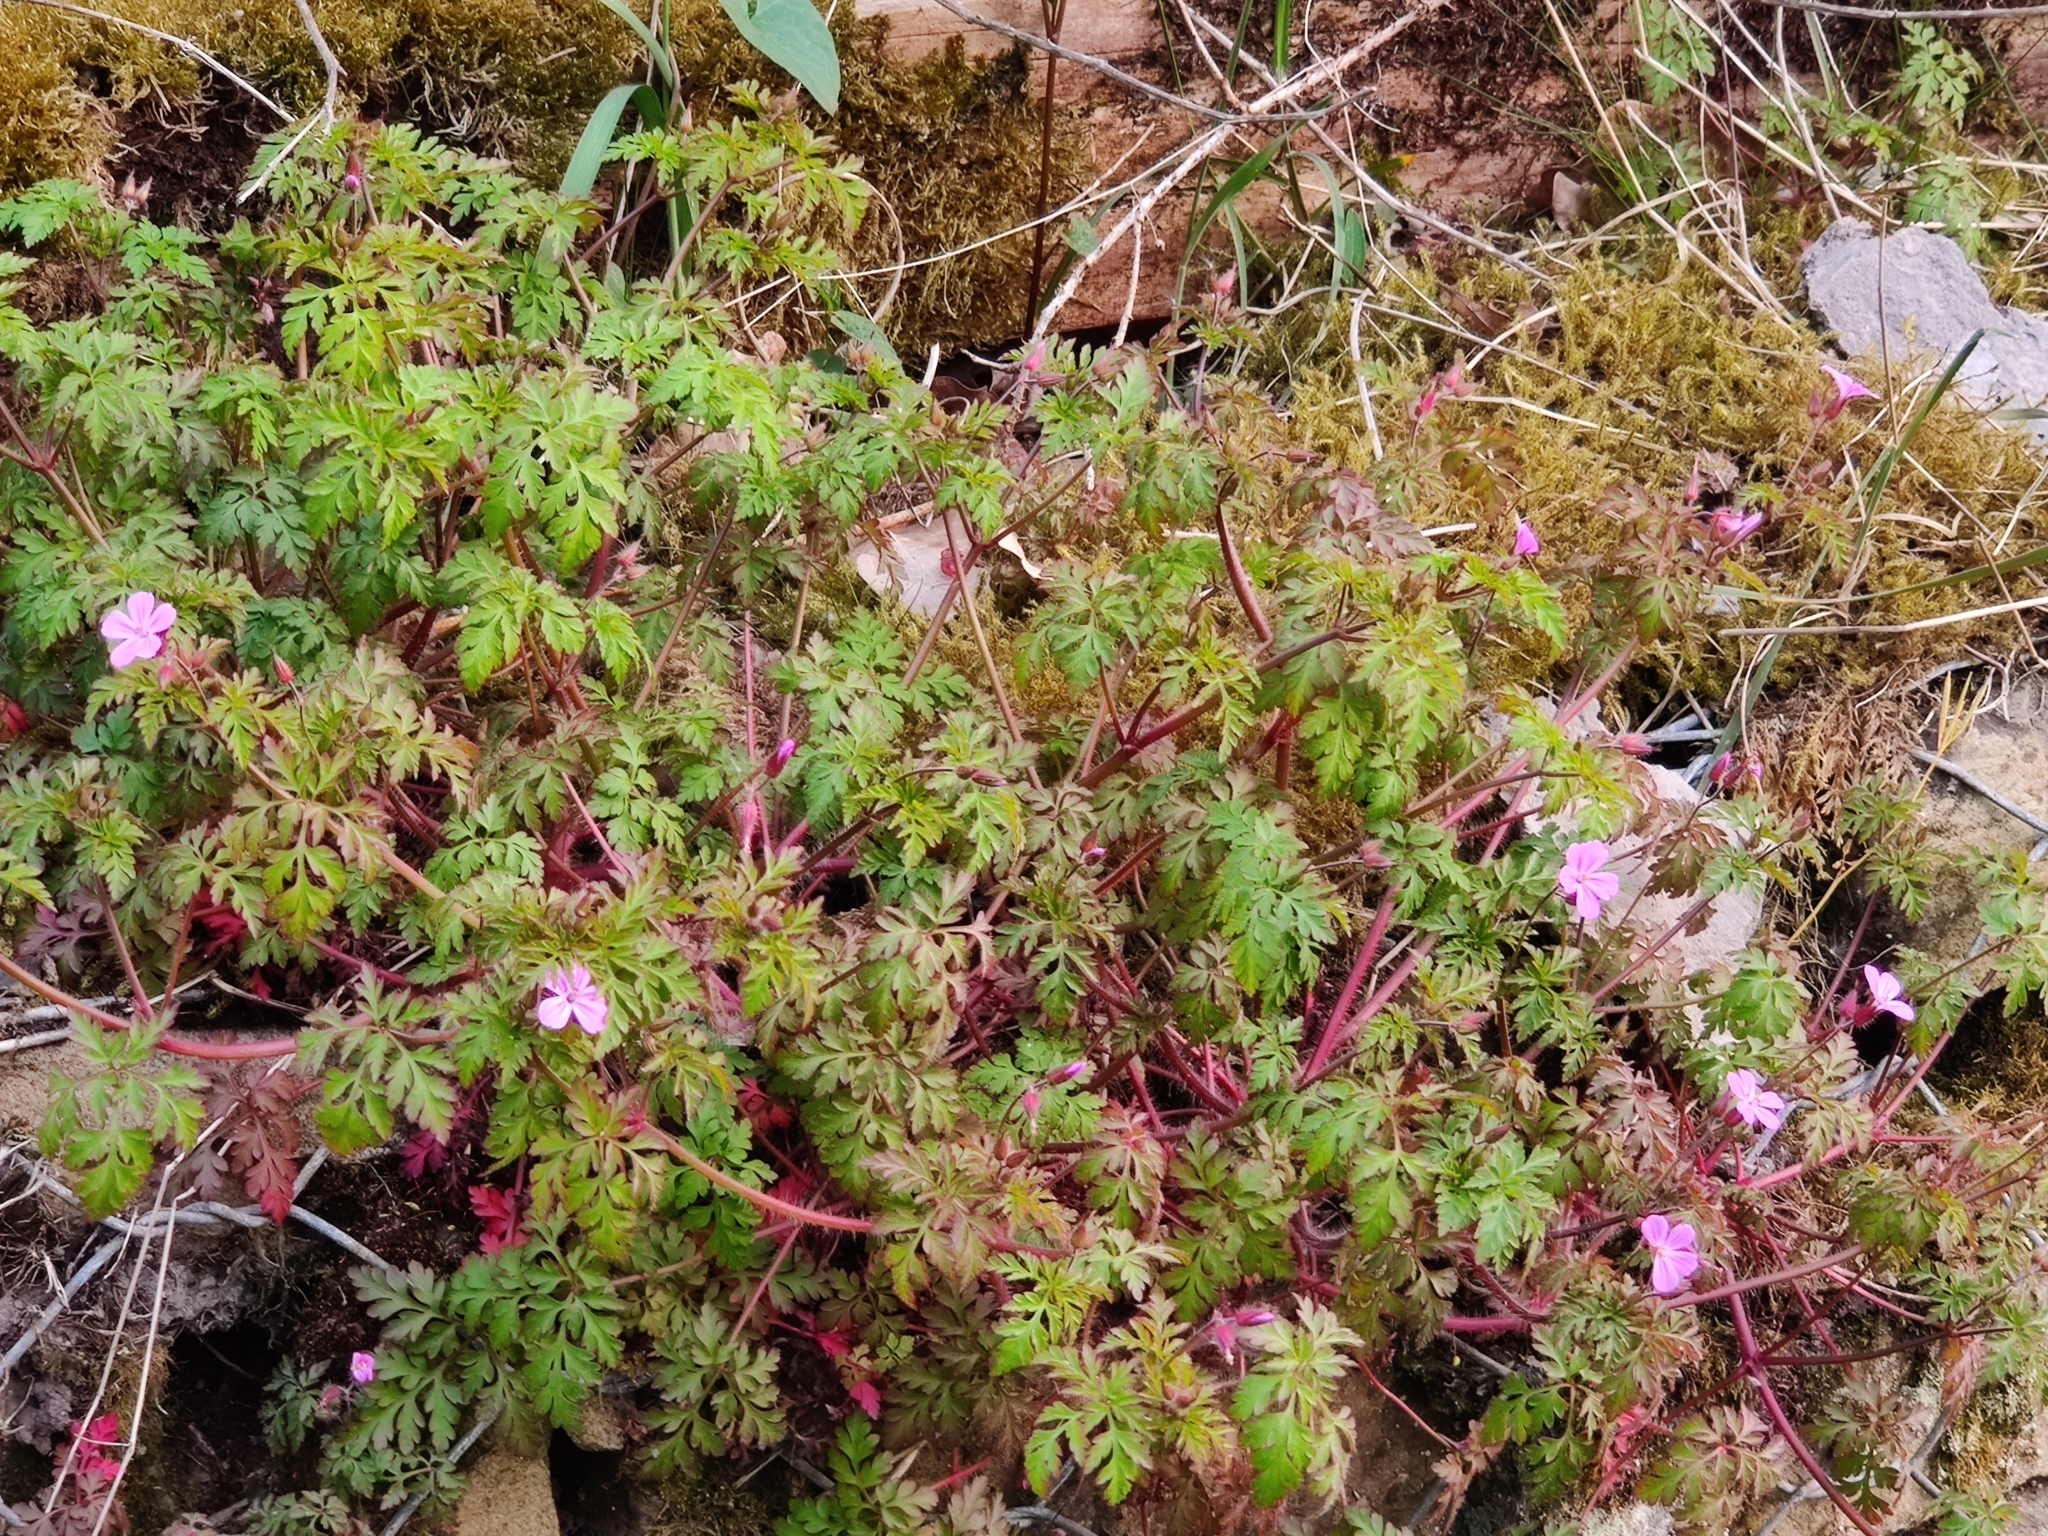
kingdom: Plantae
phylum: Tracheophyta
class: Magnoliopsida
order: Geraniales
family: Geraniaceae
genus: Geranium
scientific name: Geranium robertianum
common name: Herb-robert
